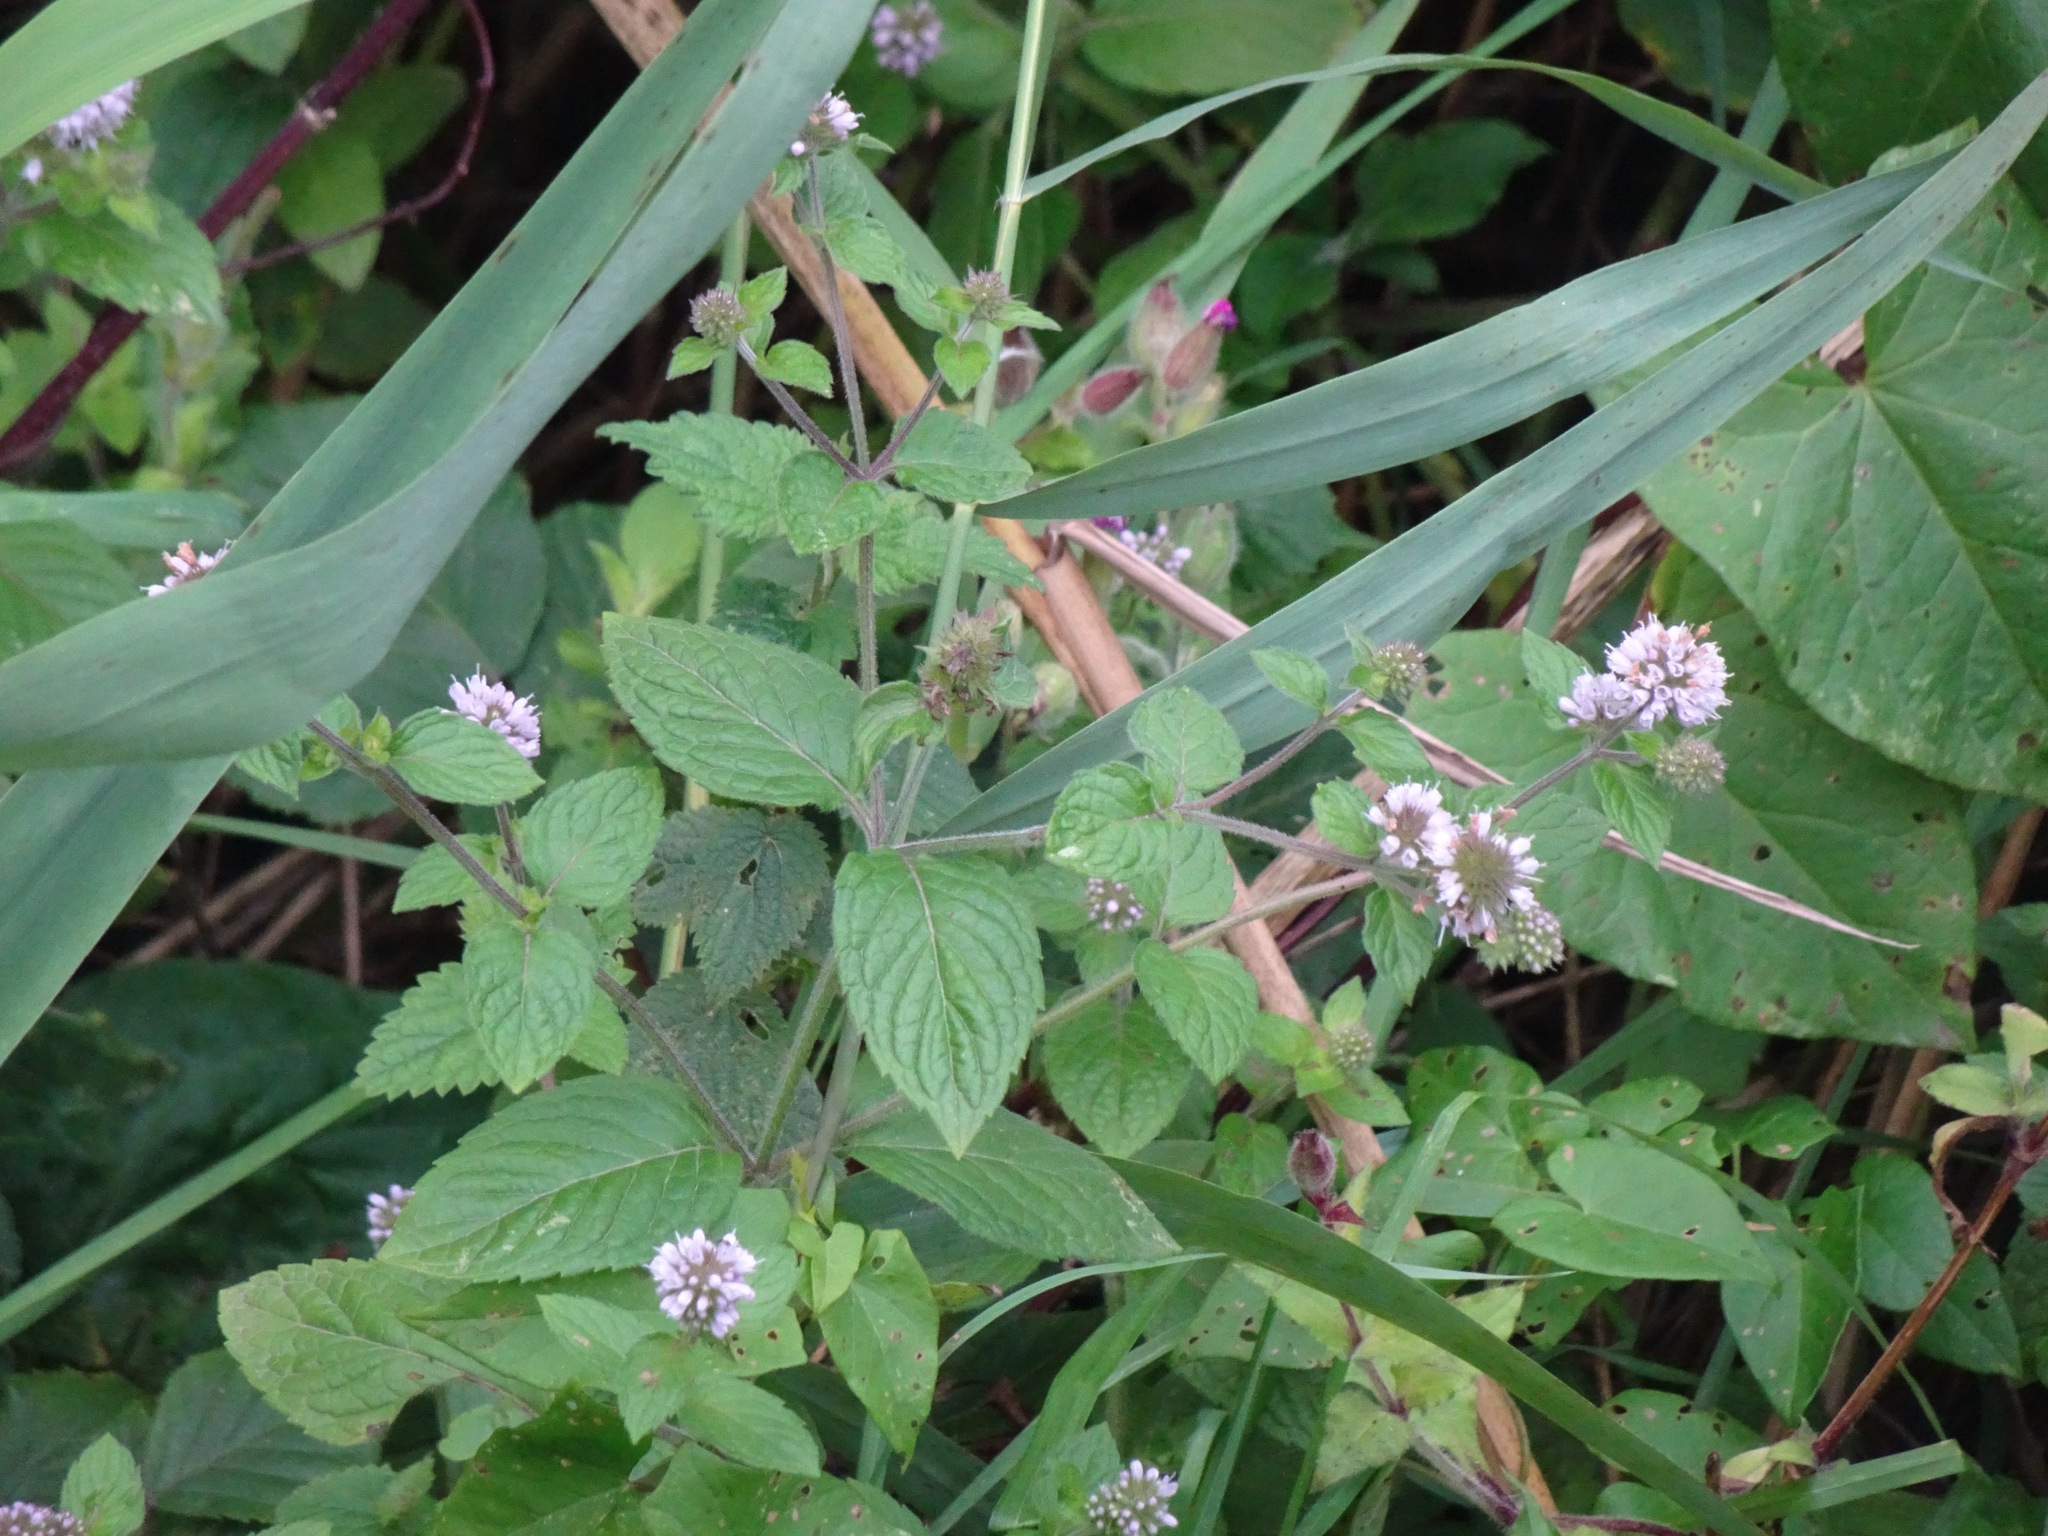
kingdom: Plantae
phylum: Tracheophyta
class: Magnoliopsida
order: Lamiales
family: Lamiaceae
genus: Mentha
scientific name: Mentha aquatica
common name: Water mint
